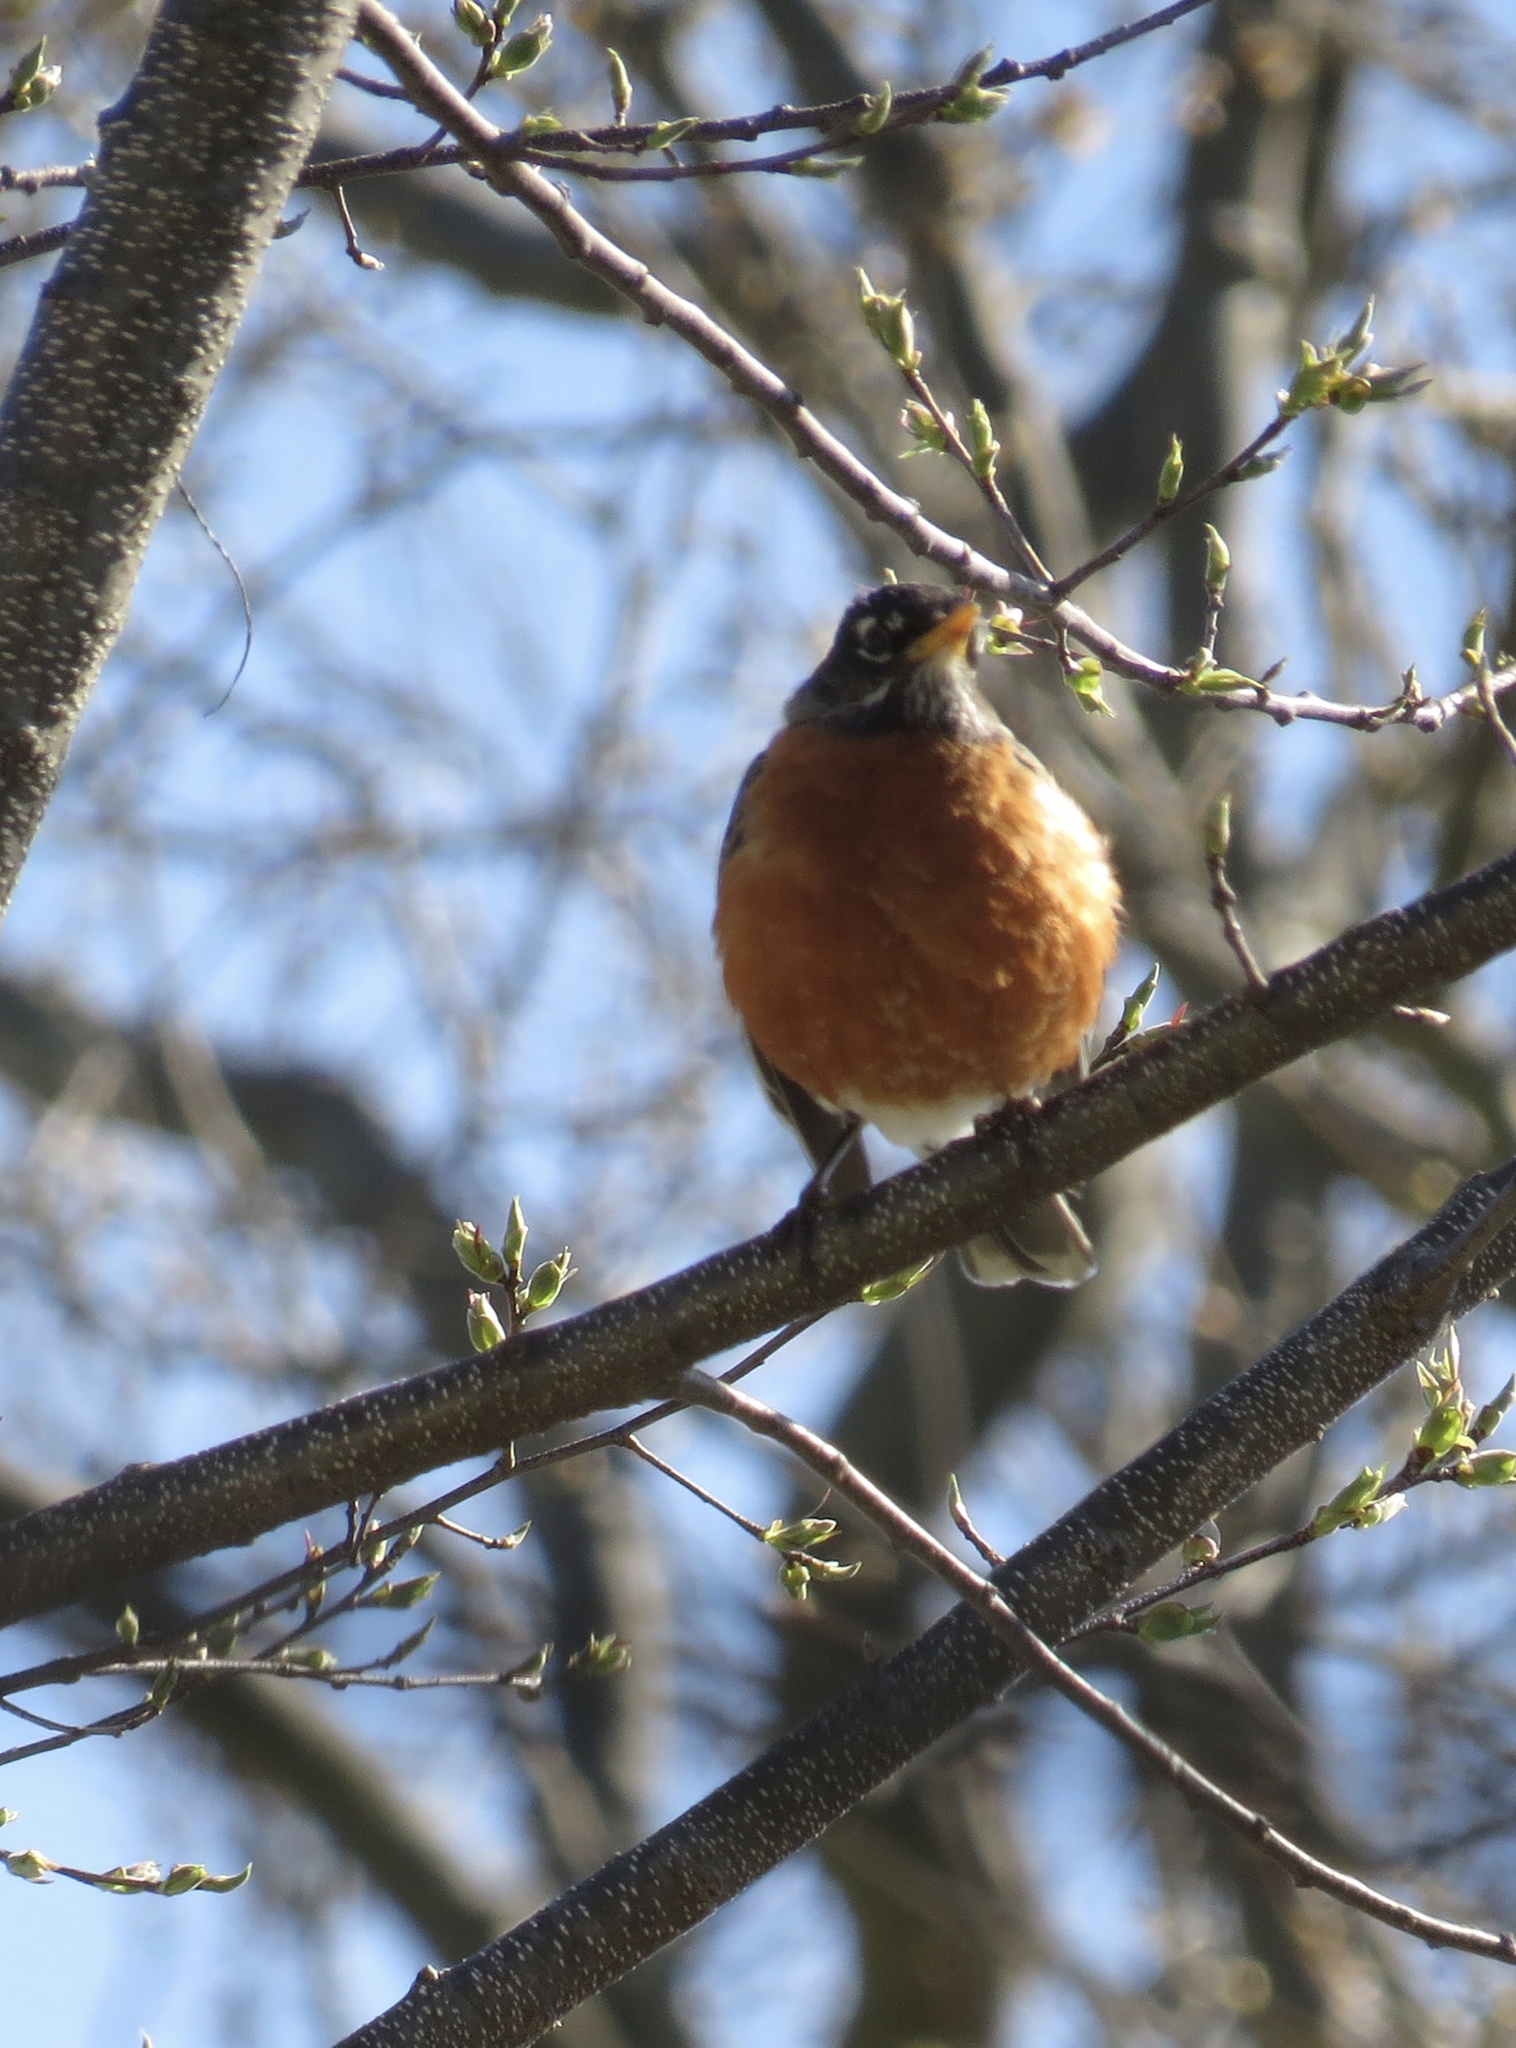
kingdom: Animalia
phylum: Chordata
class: Aves
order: Passeriformes
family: Turdidae
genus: Turdus
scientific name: Turdus migratorius
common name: American robin
